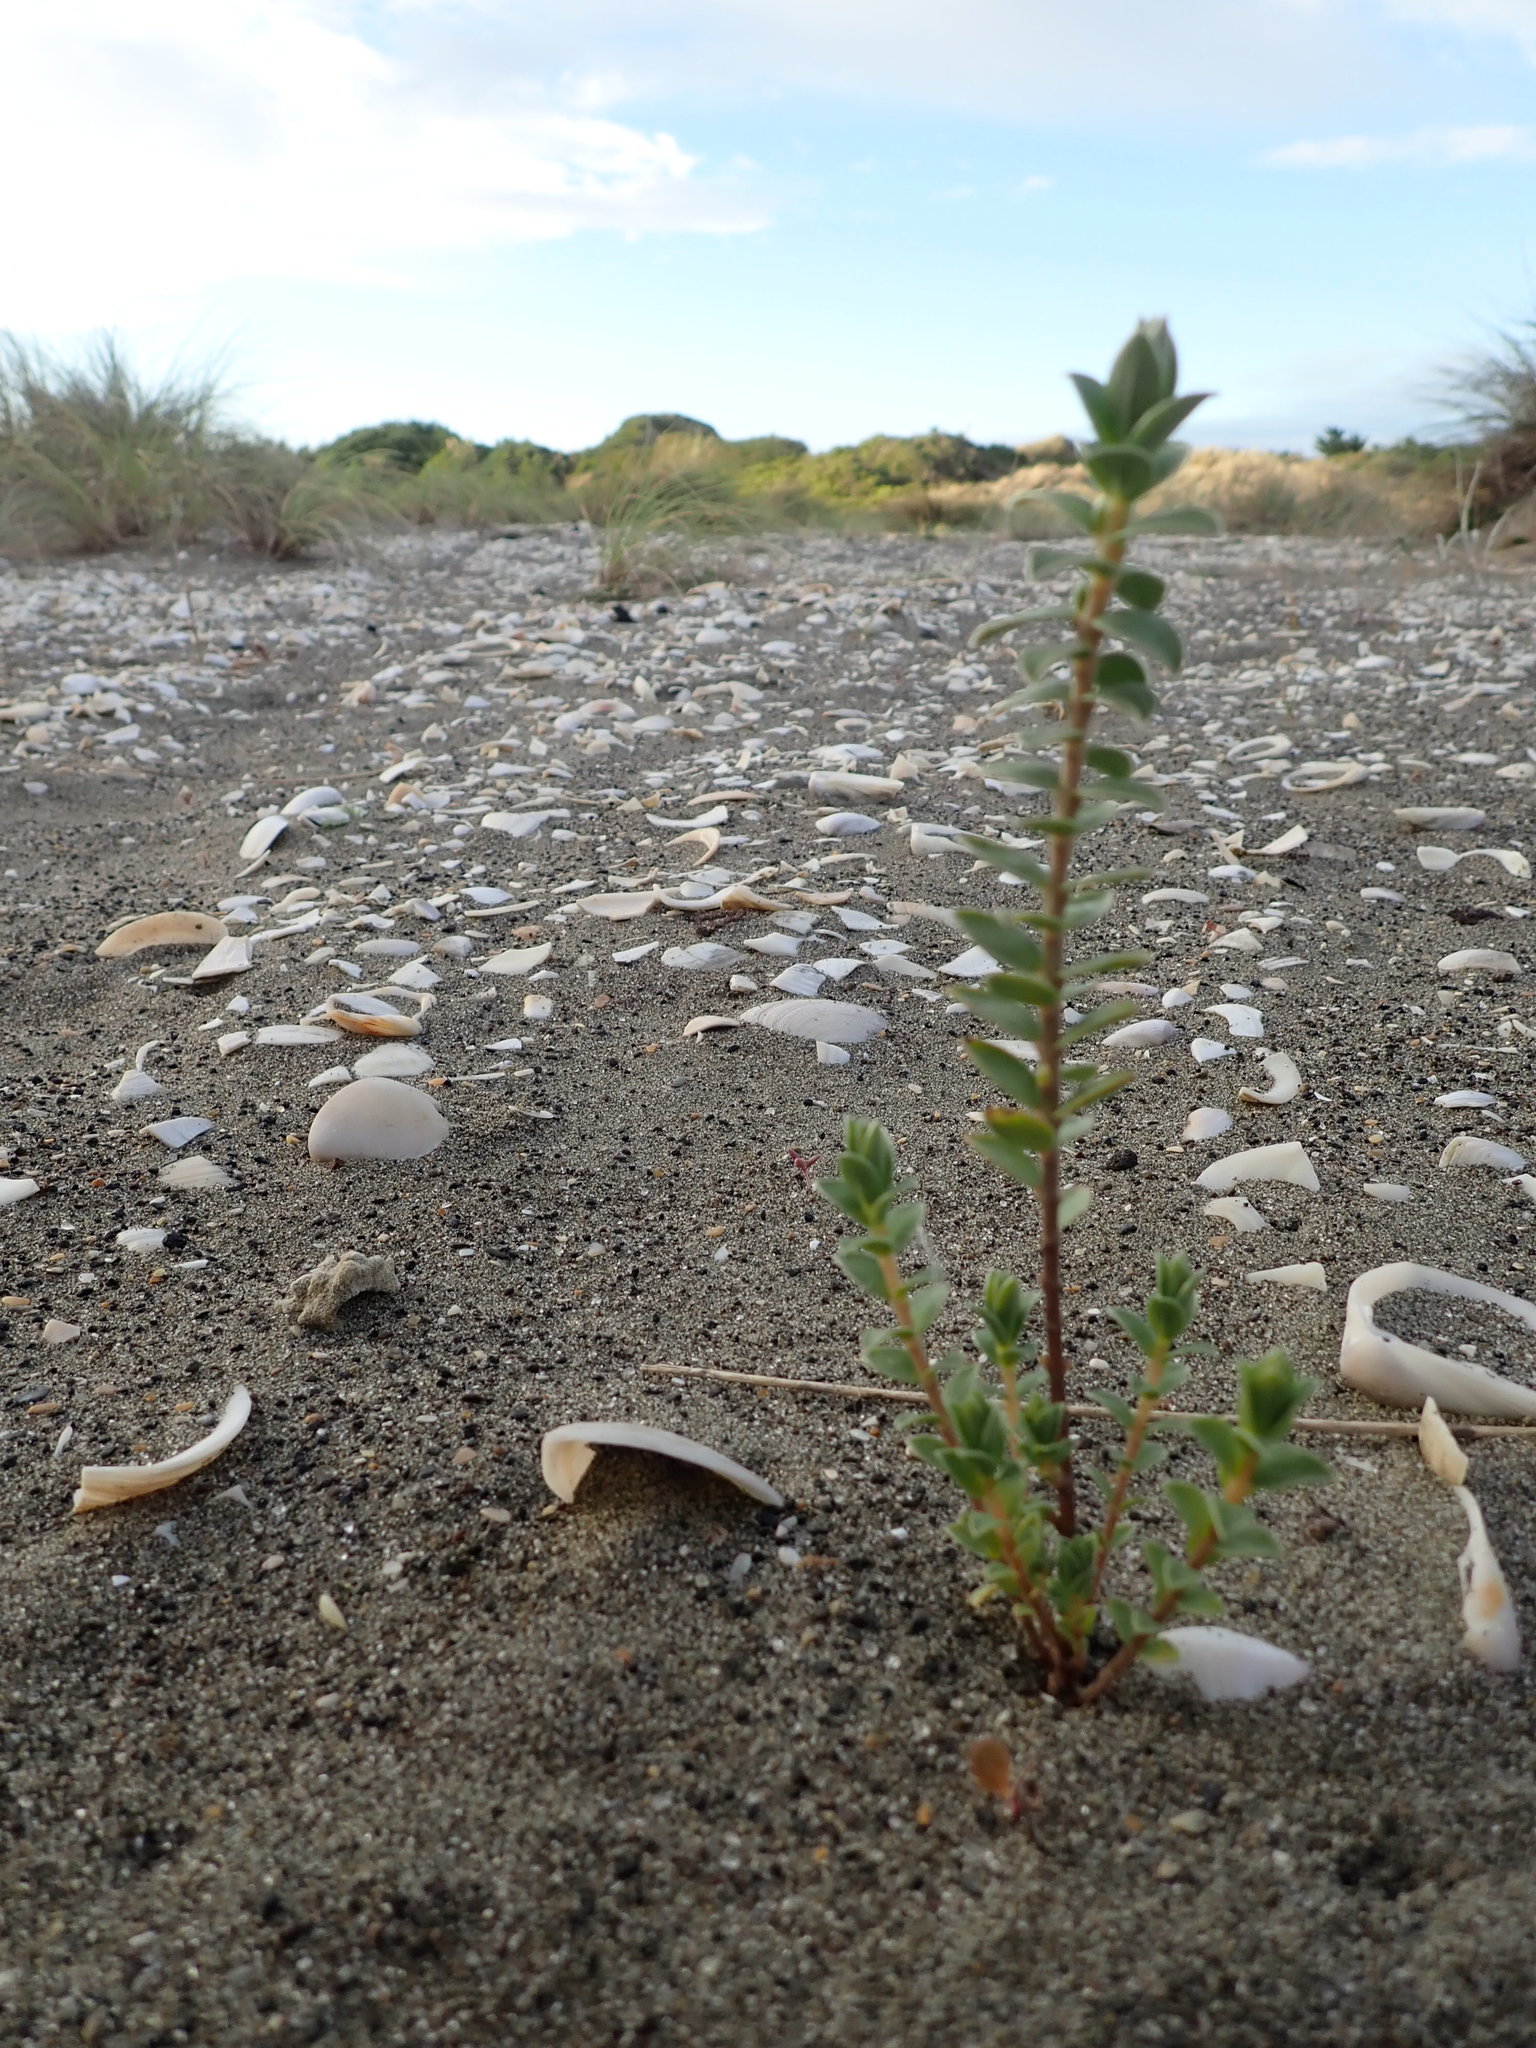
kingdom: Plantae
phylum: Tracheophyta
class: Magnoliopsida
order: Malvales
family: Thymelaeaceae
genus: Pimelea
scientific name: Pimelea villosa
